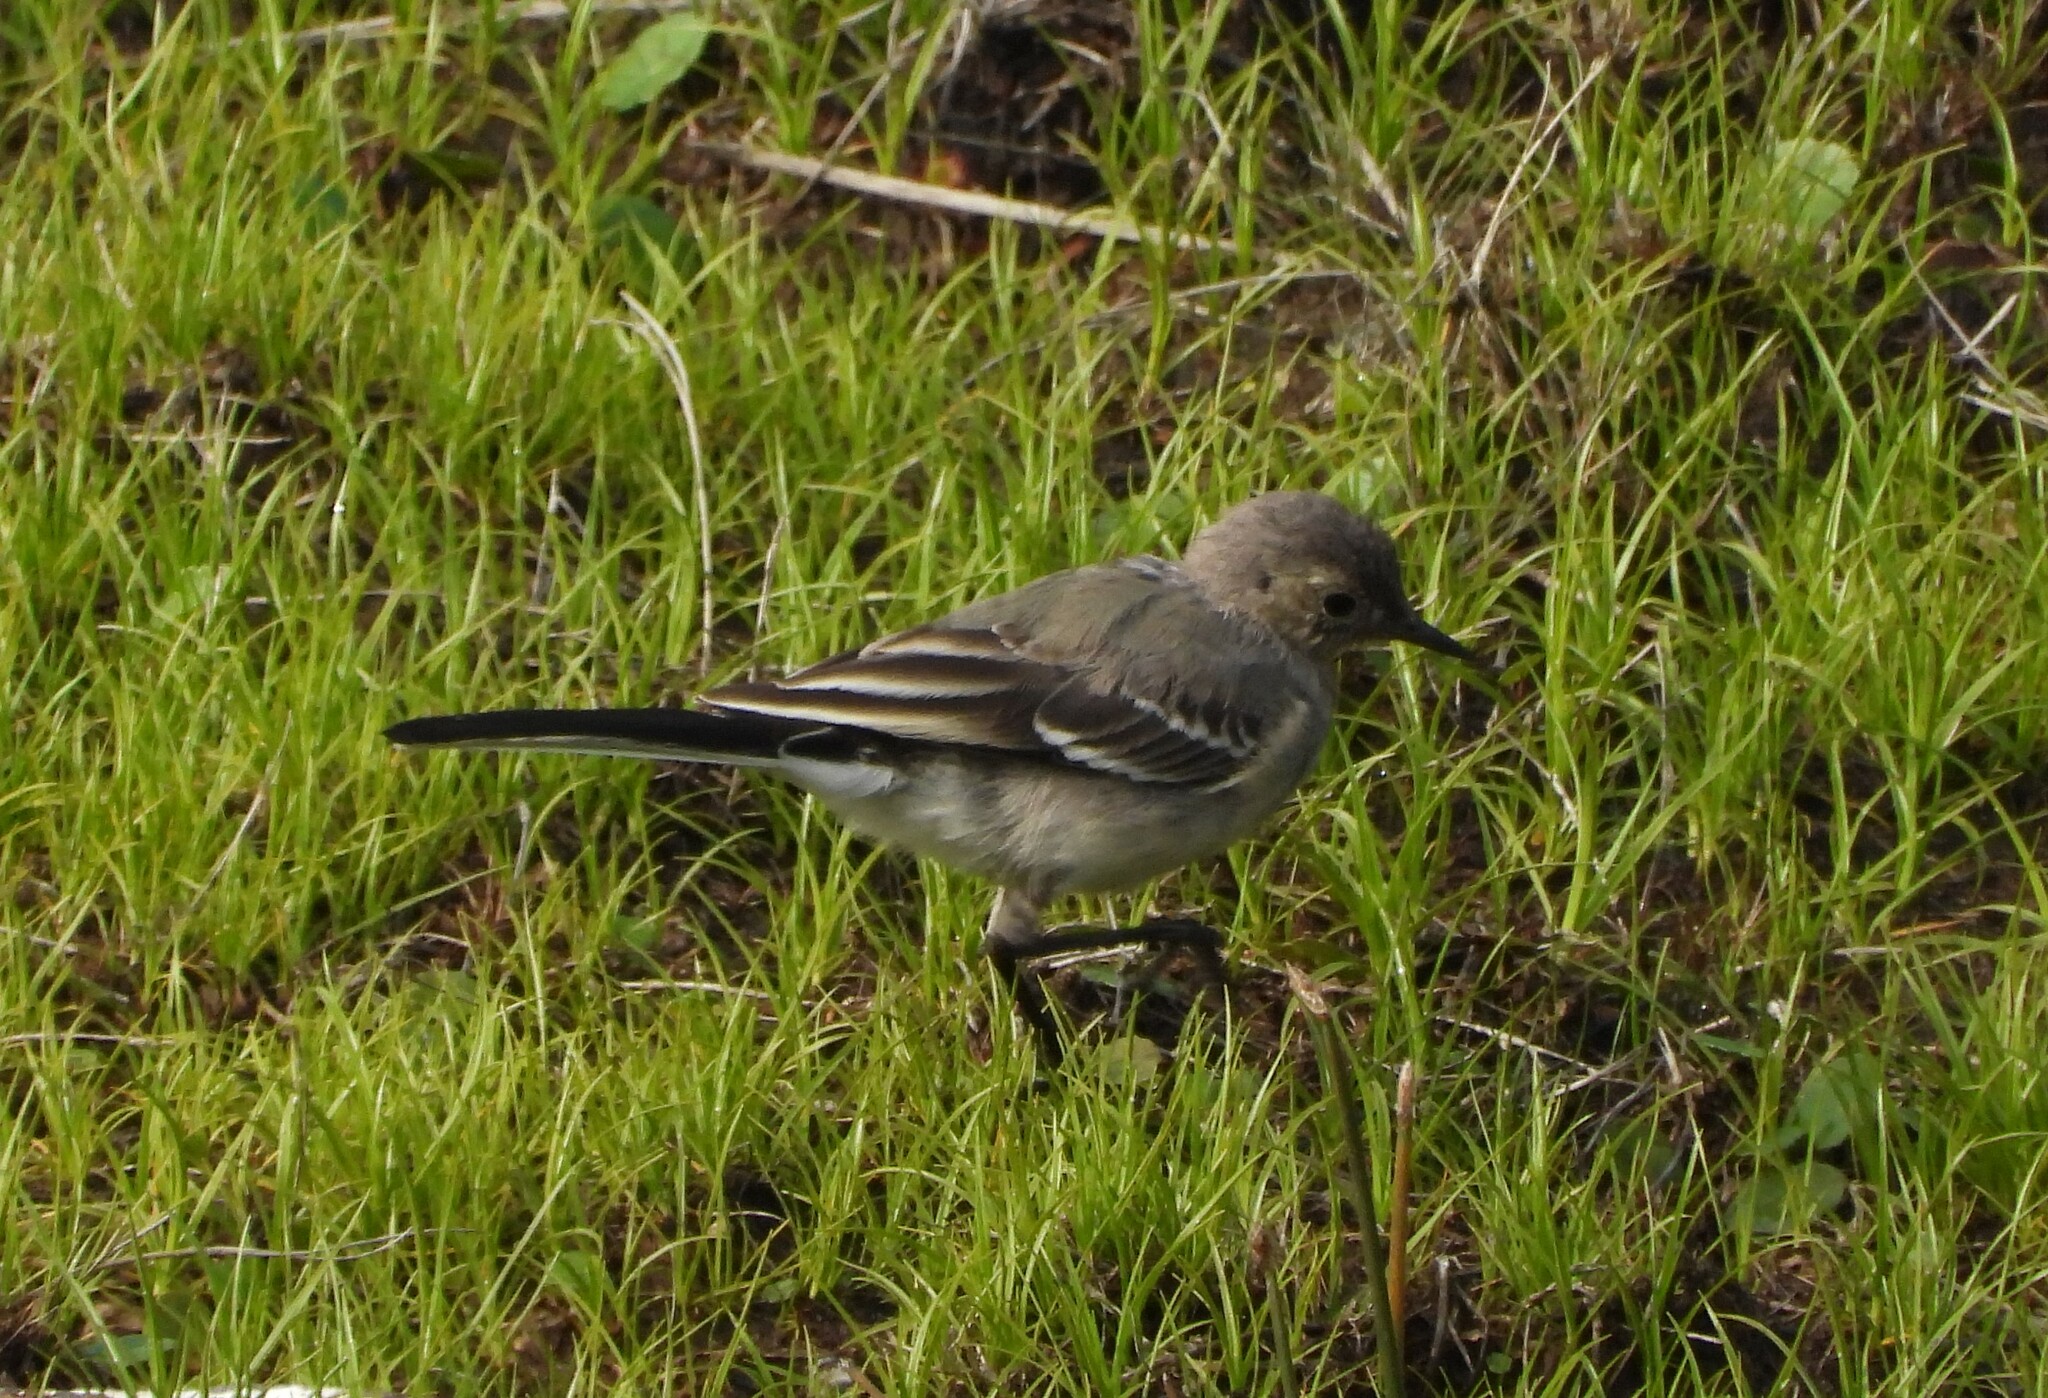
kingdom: Animalia
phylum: Chordata
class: Aves
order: Passeriformes
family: Motacillidae
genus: Motacilla
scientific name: Motacilla alba
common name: White wagtail
